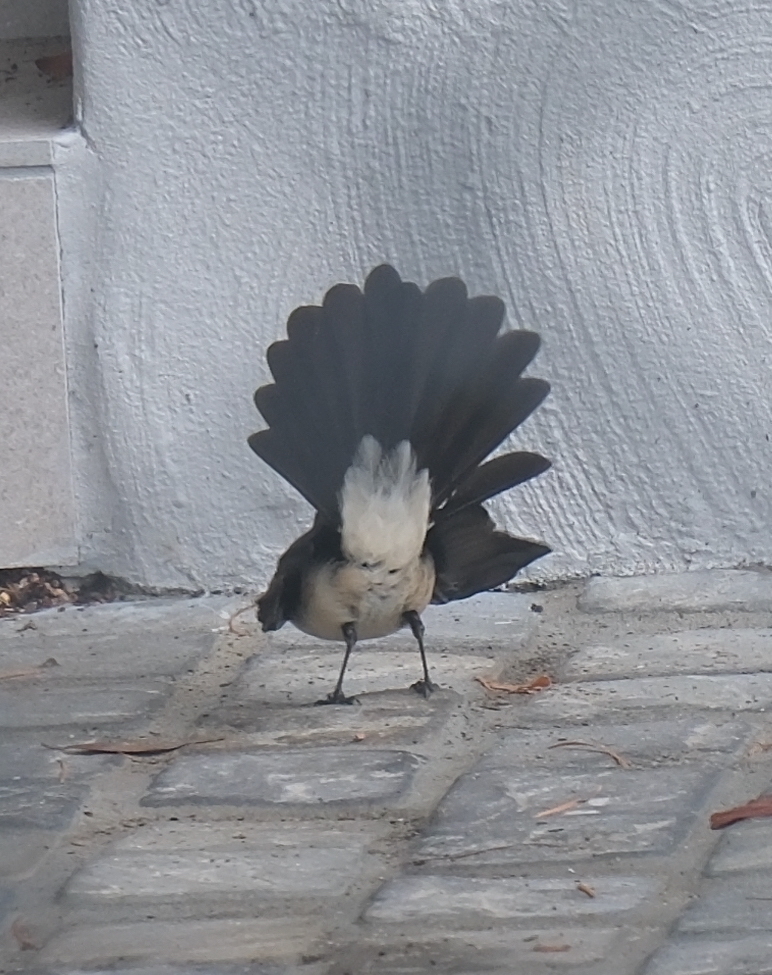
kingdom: Animalia
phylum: Chordata
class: Aves
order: Passeriformes
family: Rhipiduridae
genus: Rhipidura
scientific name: Rhipidura leucophrys
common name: Willie wagtail
